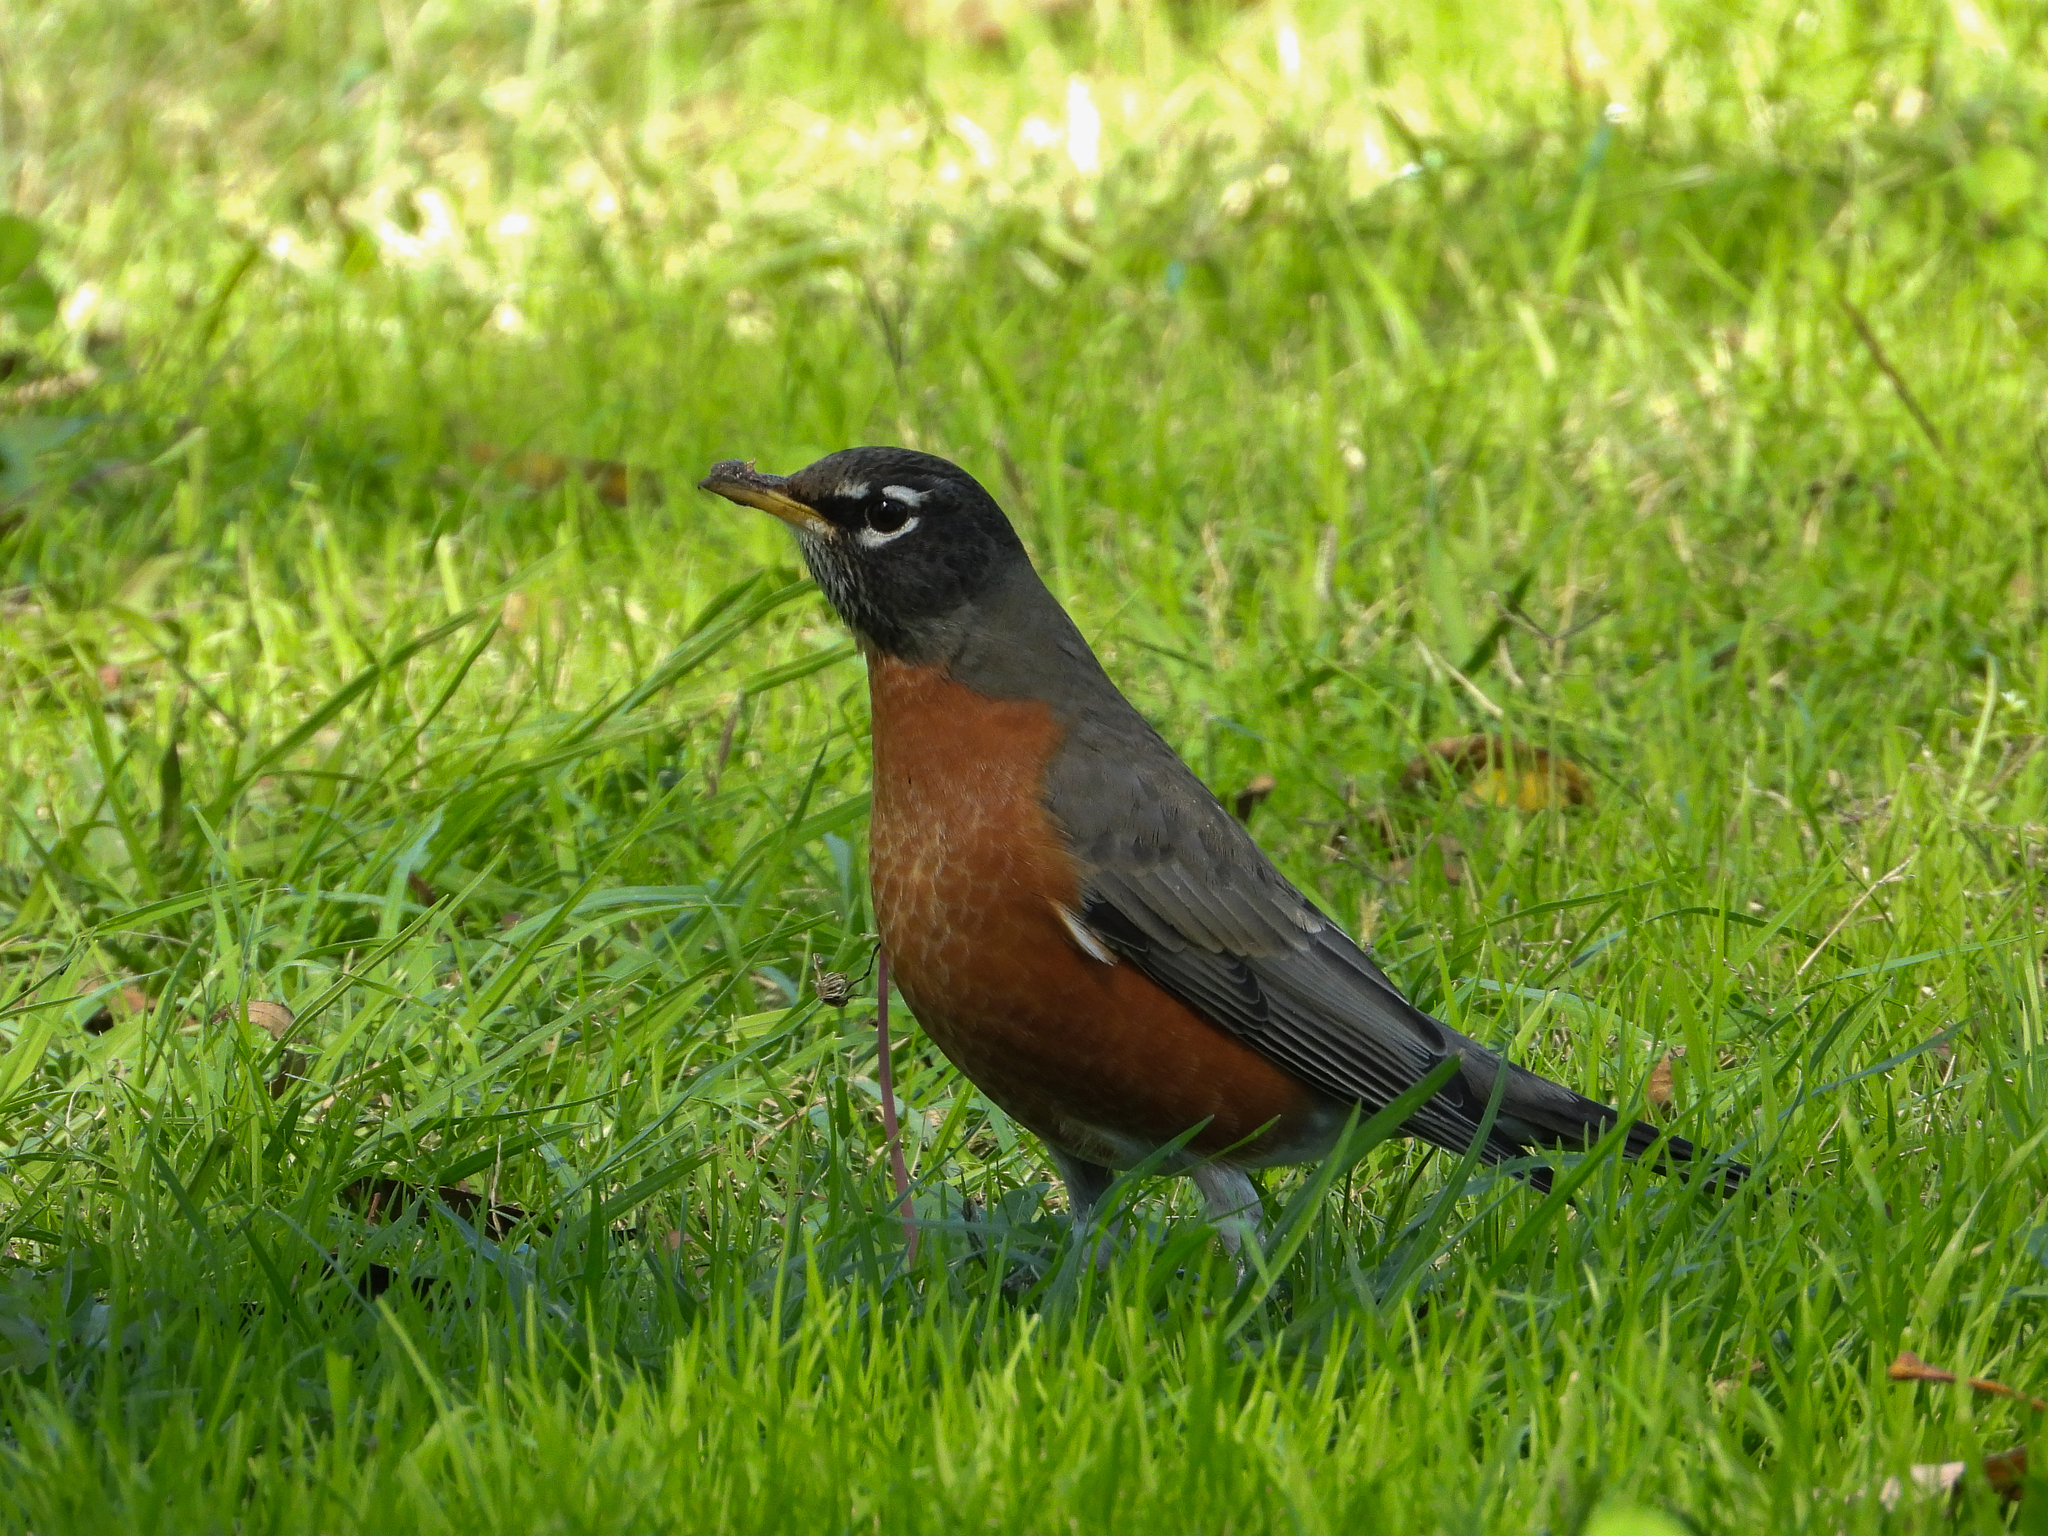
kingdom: Animalia
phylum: Chordata
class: Aves
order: Passeriformes
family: Turdidae
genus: Turdus
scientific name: Turdus migratorius
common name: American robin
